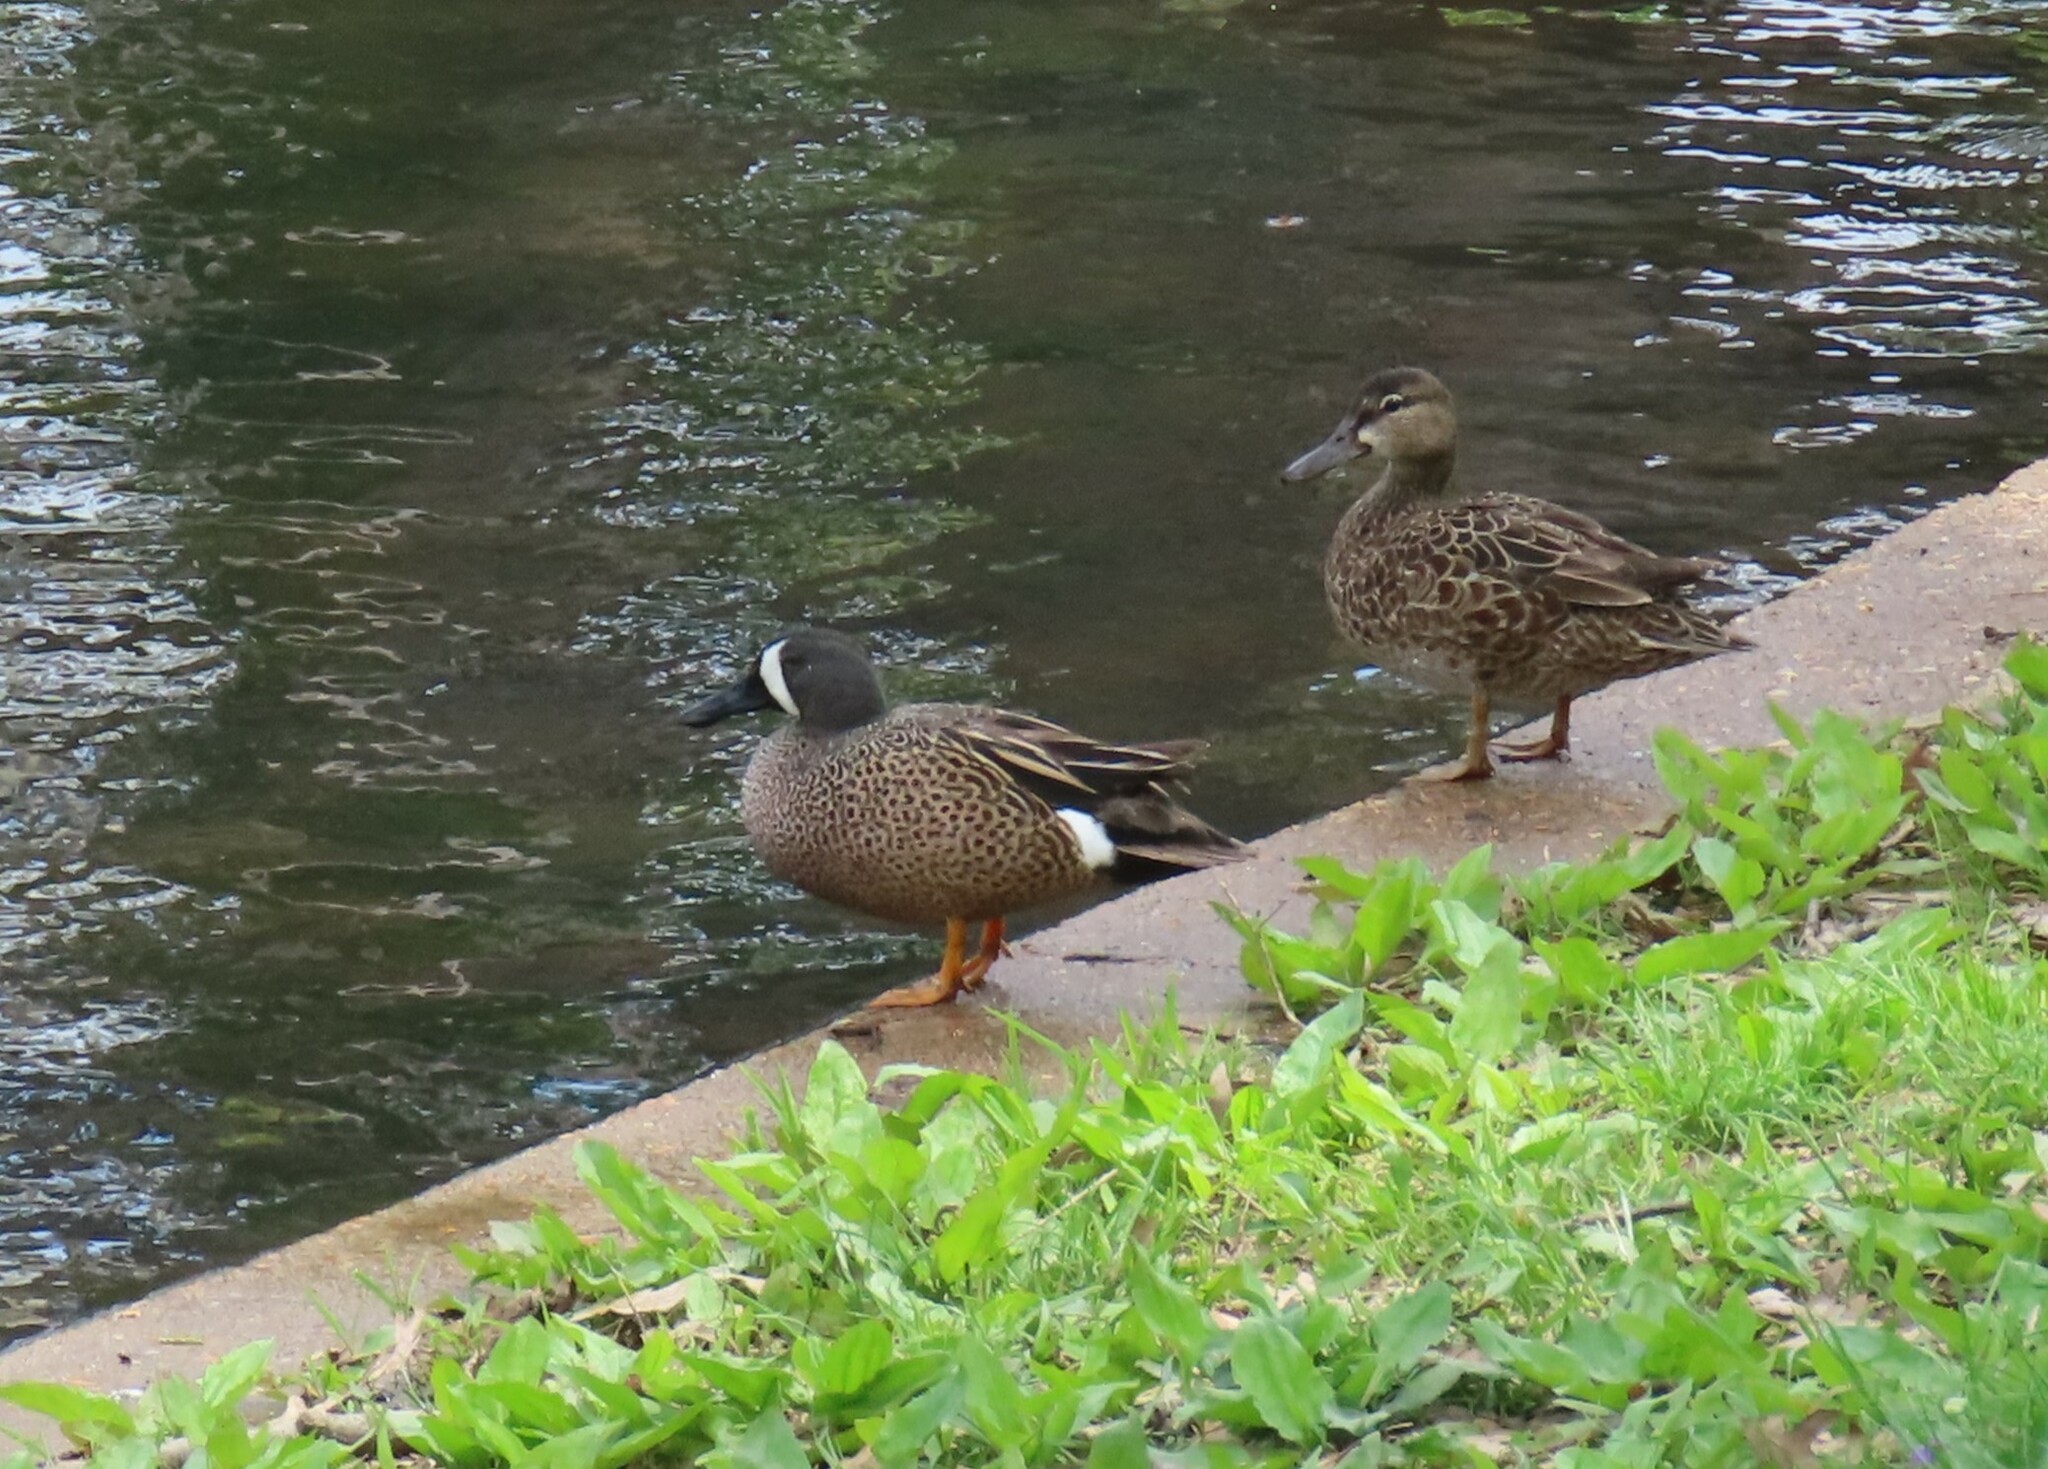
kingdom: Animalia
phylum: Chordata
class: Aves
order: Anseriformes
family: Anatidae
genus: Spatula
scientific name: Spatula discors
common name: Blue-winged teal
